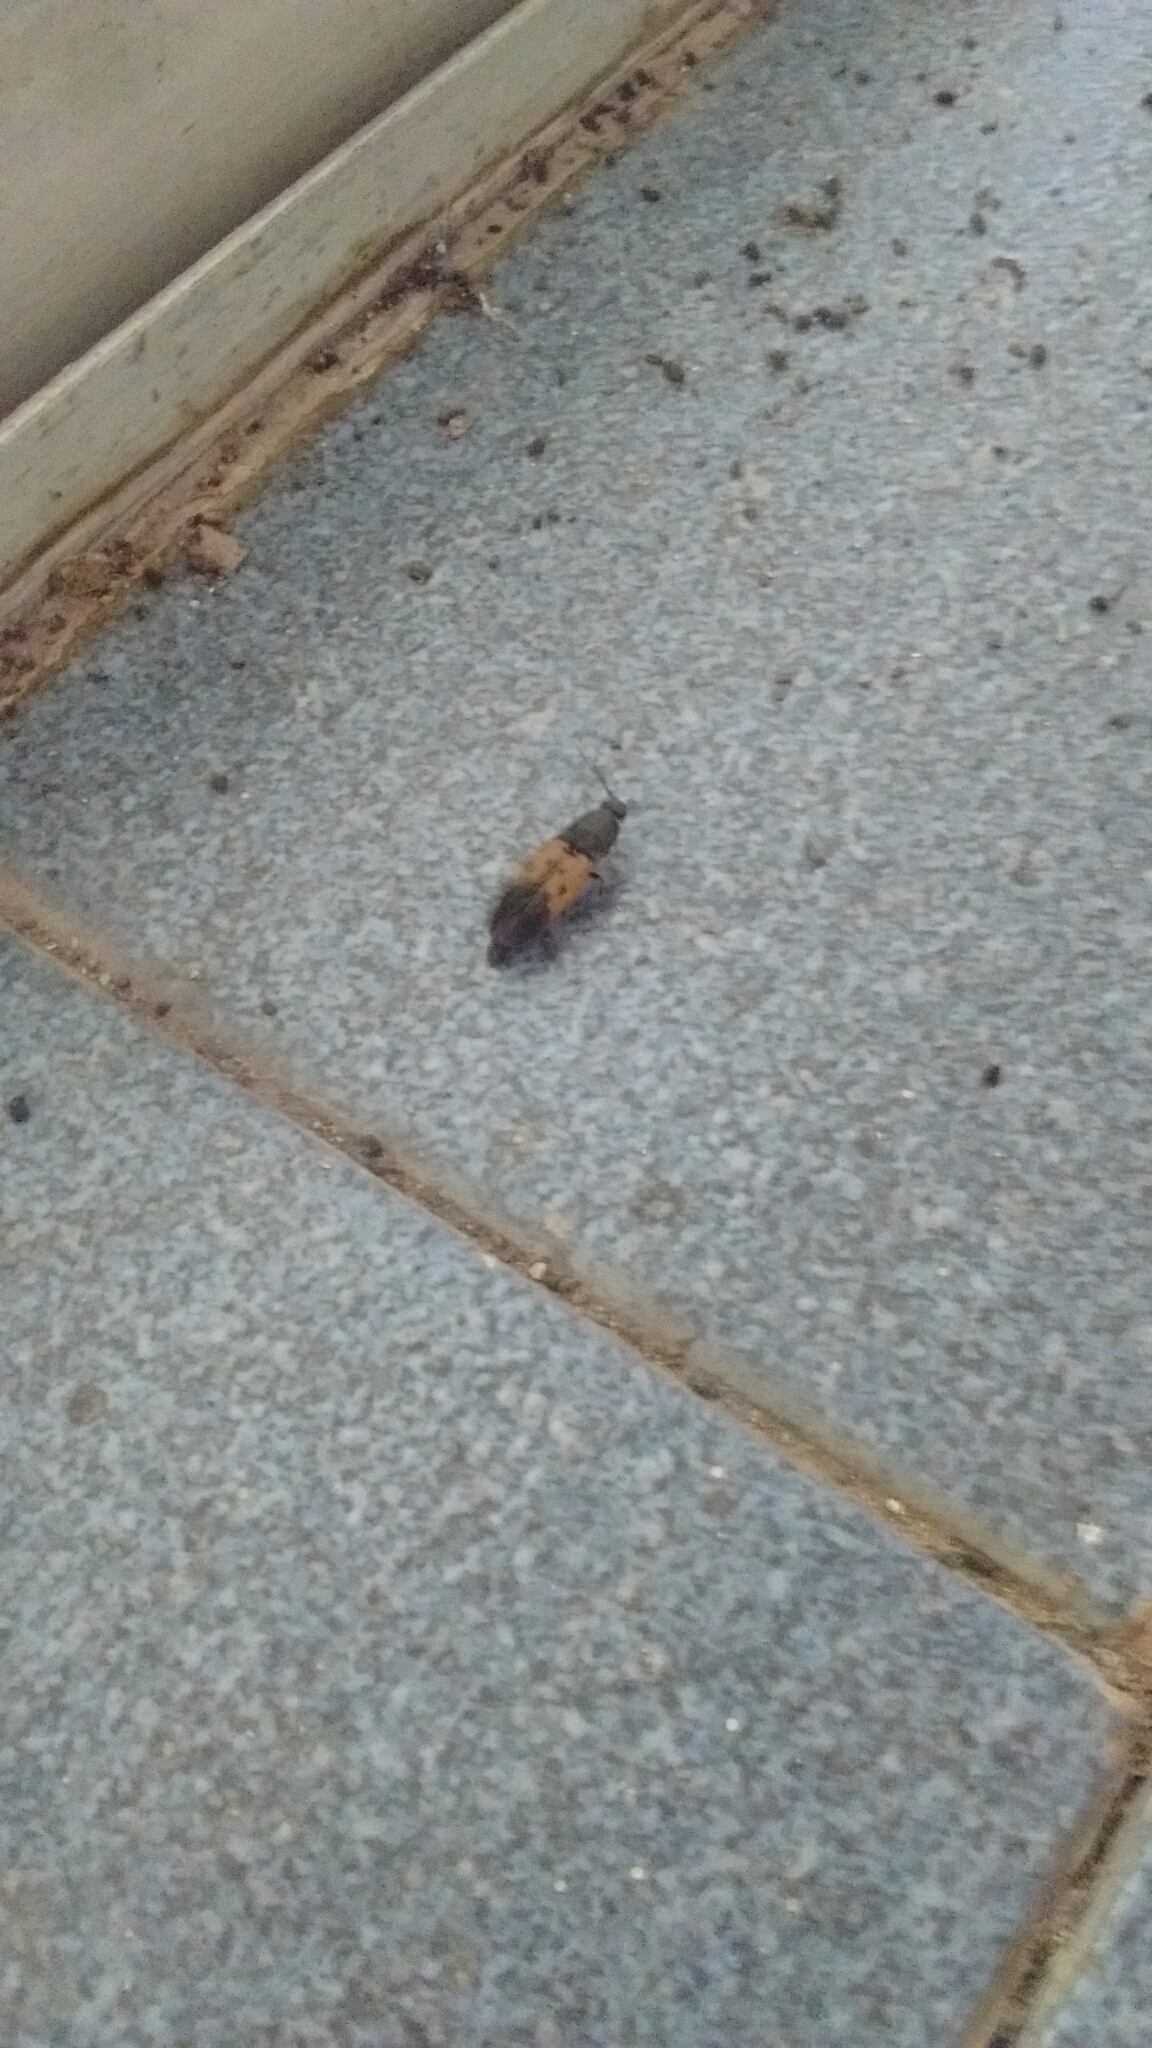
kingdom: Animalia
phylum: Arthropoda
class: Insecta
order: Coleoptera
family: Elateridae
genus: Monocrepidius
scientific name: Monocrepidius
